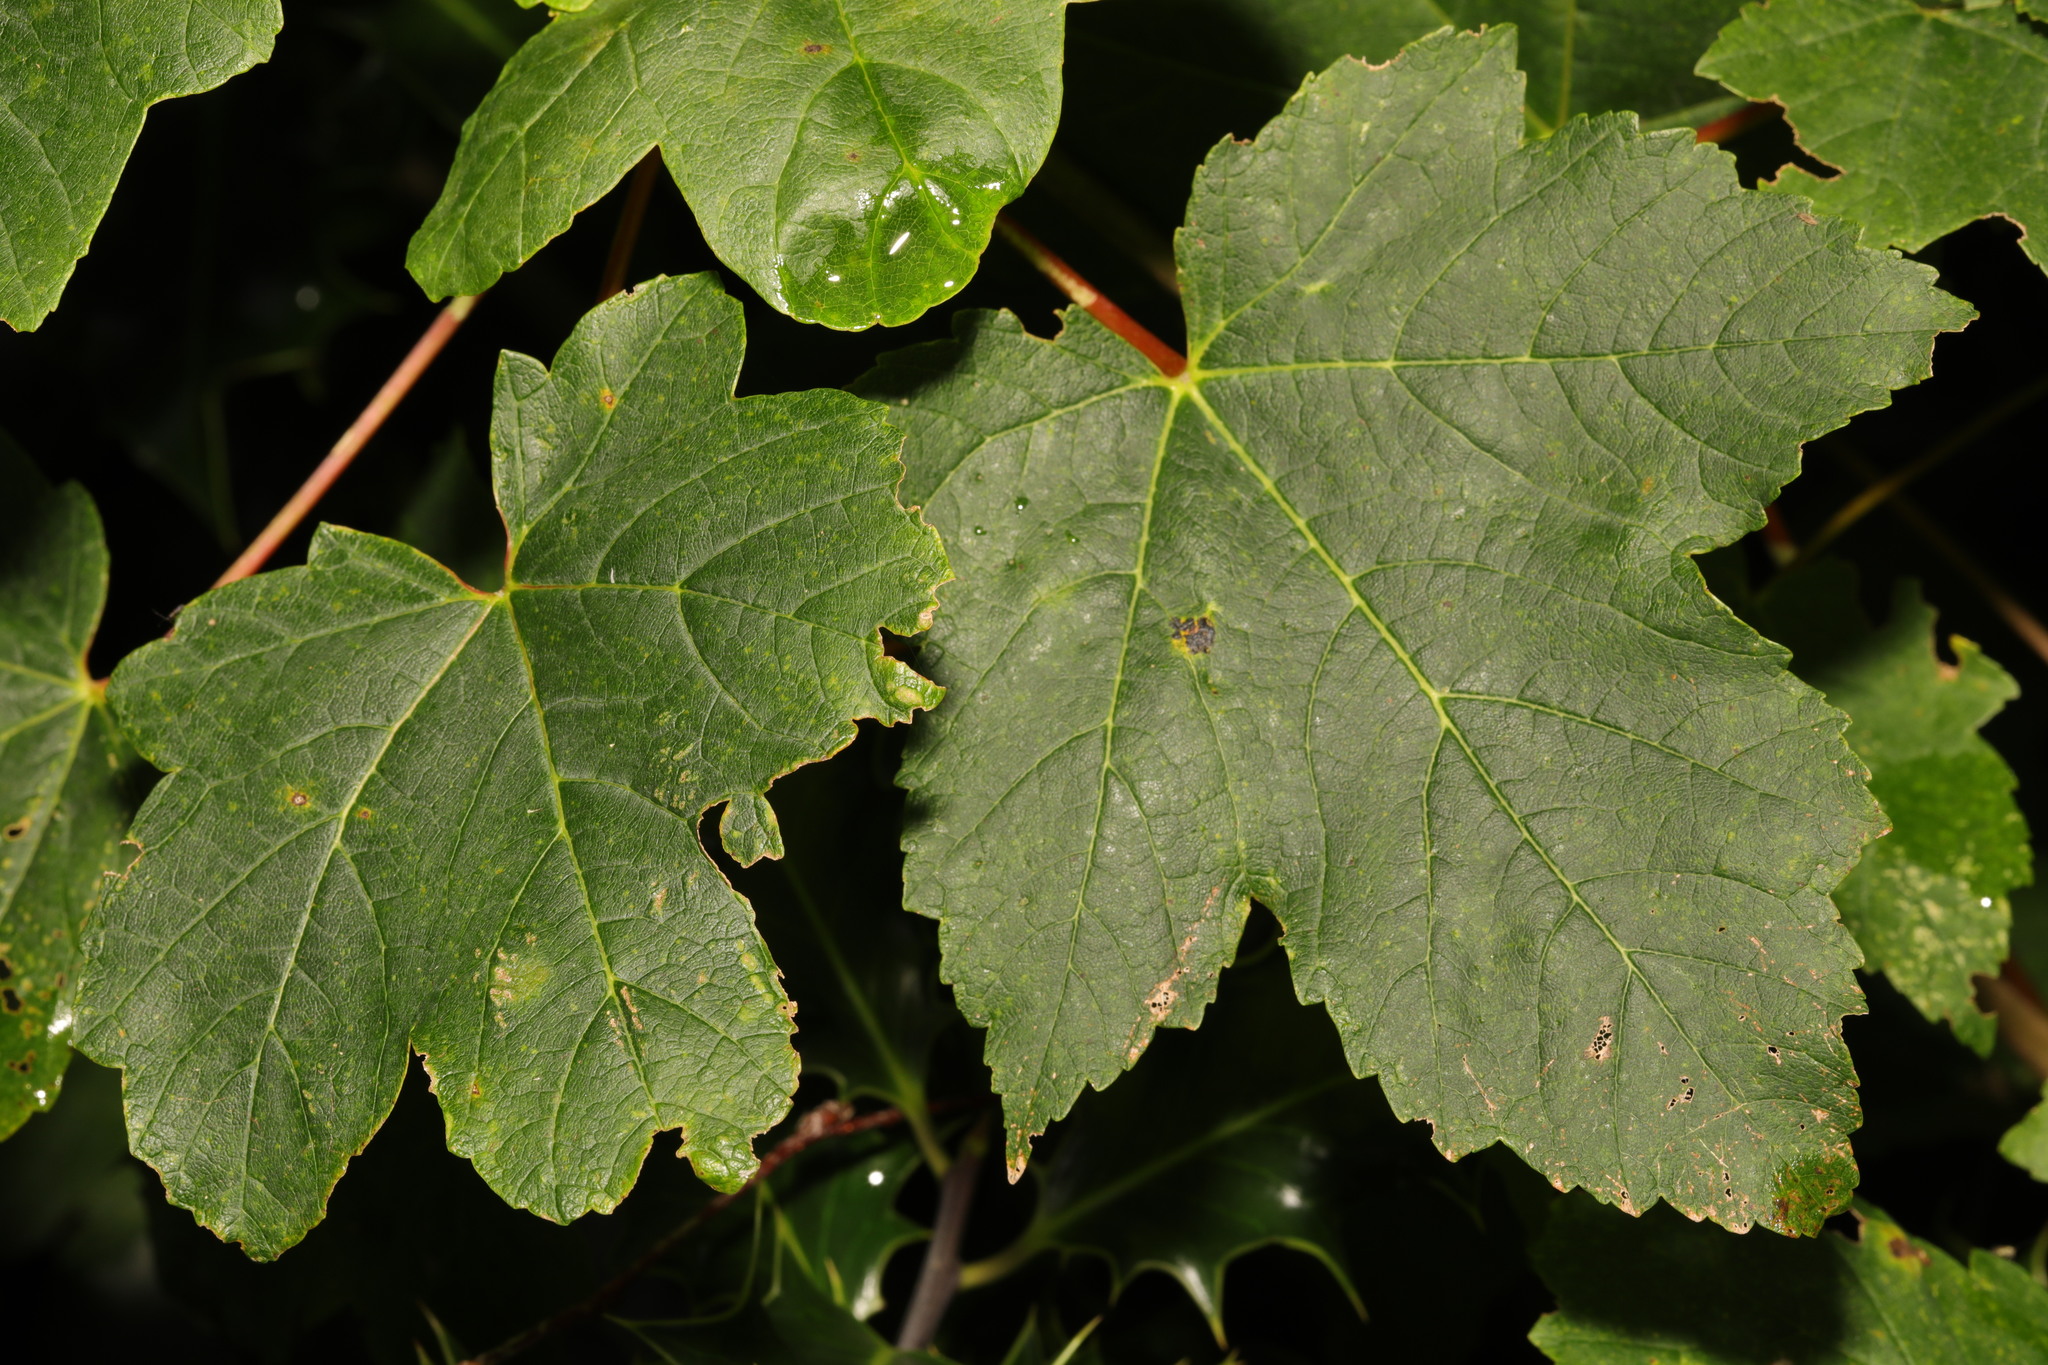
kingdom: Plantae
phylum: Tracheophyta
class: Magnoliopsida
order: Sapindales
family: Sapindaceae
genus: Acer
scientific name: Acer pseudoplatanus
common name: Sycamore
